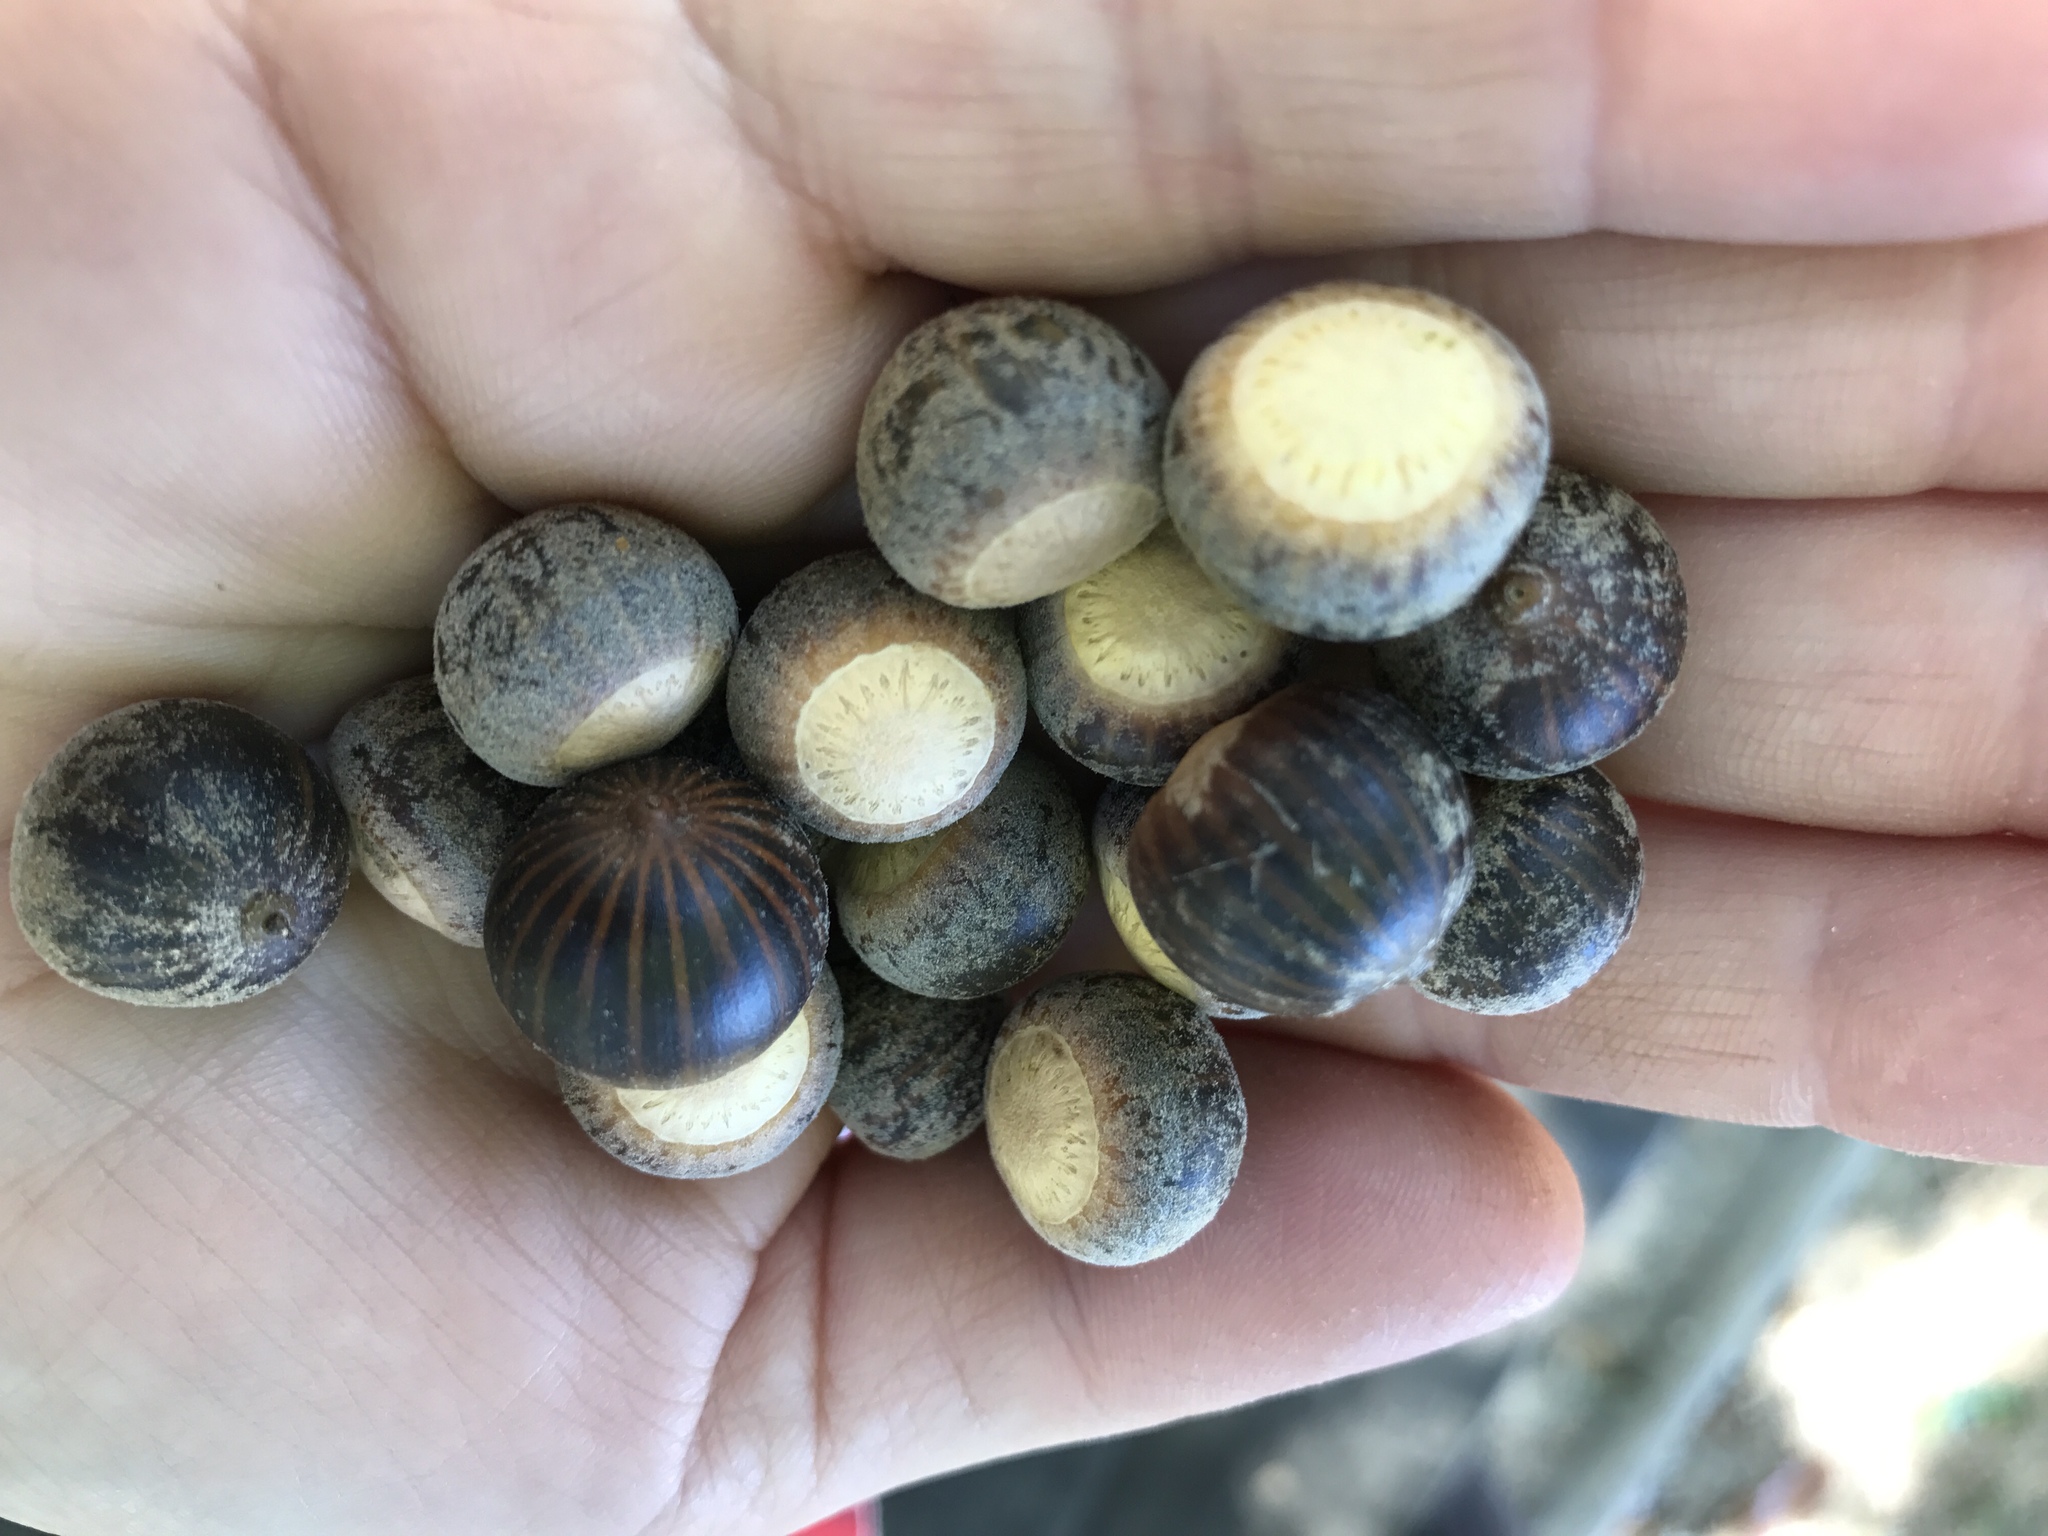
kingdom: Plantae
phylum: Tracheophyta
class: Magnoliopsida
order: Fagales
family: Fagaceae
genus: Quercus
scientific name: Quercus palustris
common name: Pin oak
